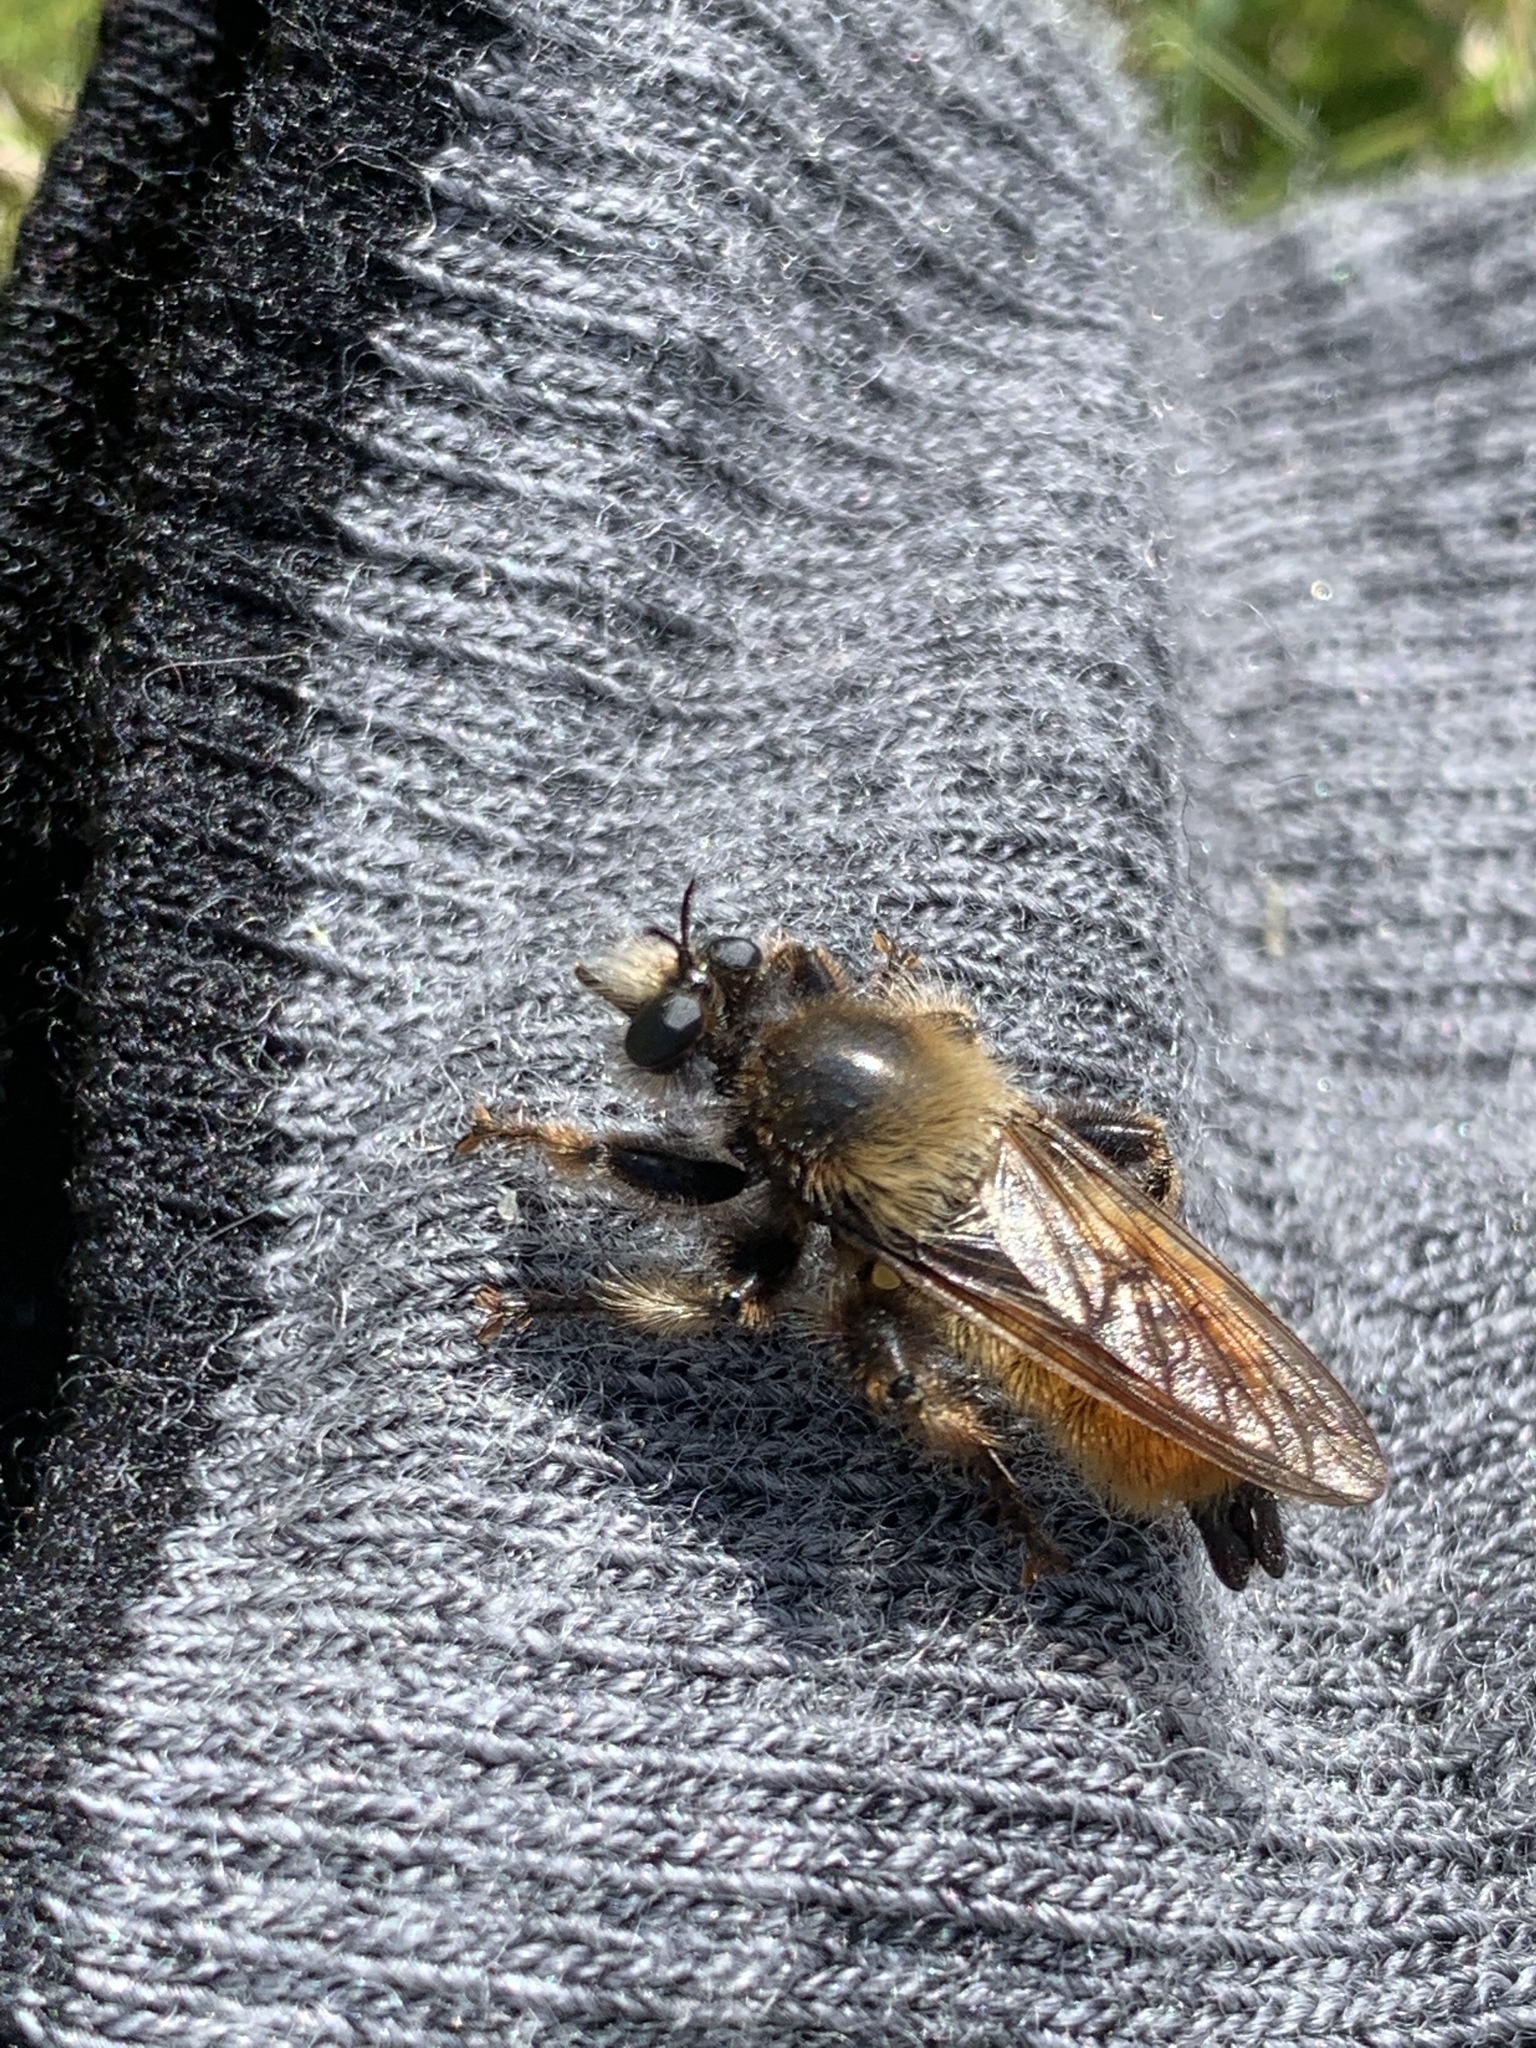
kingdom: Animalia
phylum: Arthropoda
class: Insecta
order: Diptera
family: Asilidae
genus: Laphria
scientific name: Laphria flava
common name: Bumblebee robberfly
